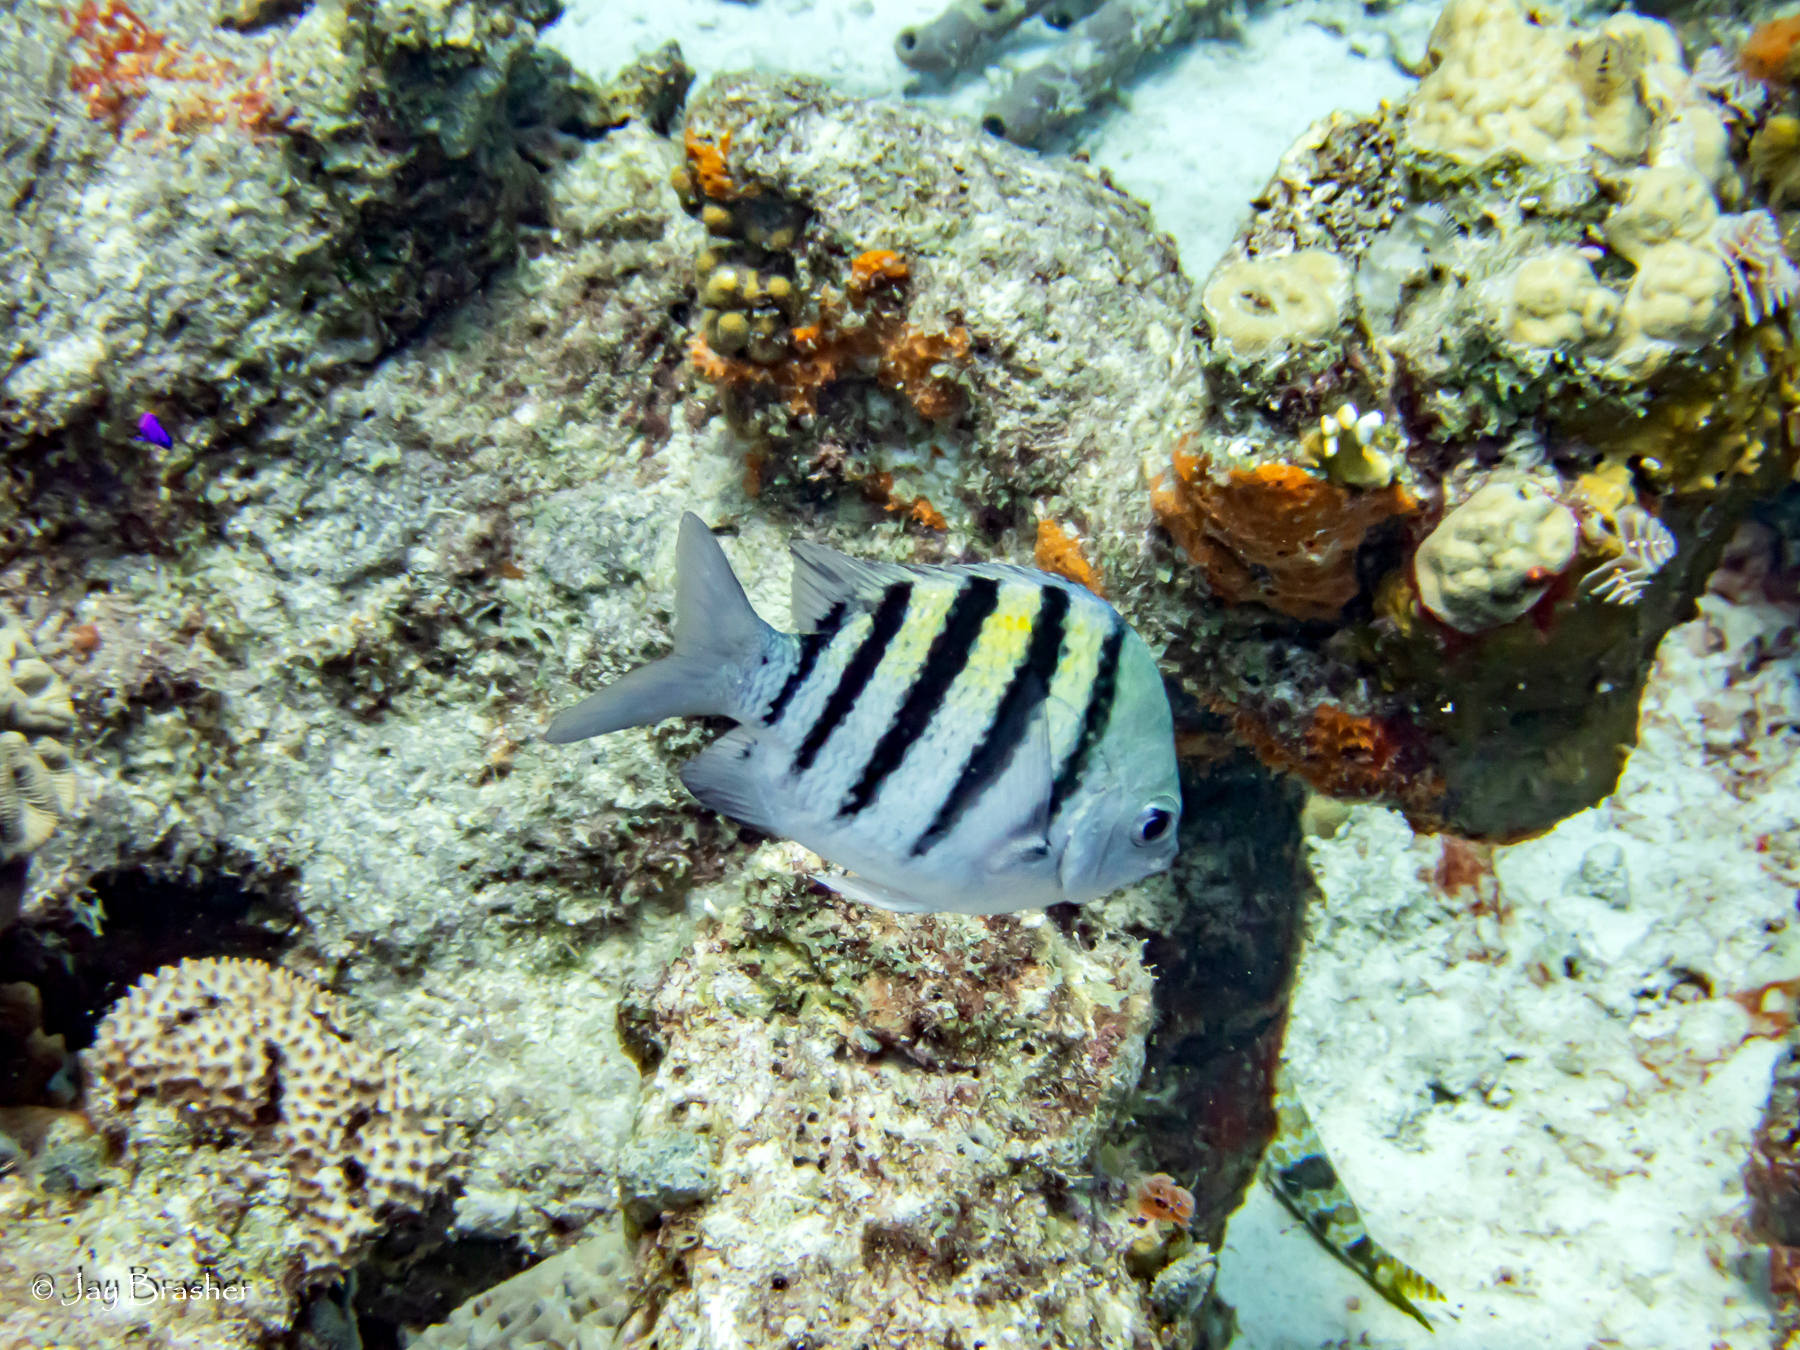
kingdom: Animalia
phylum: Porifera
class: Demospongiae
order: Dictyoceratida
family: Irciniidae
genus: Ircinia
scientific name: Ircinia felix
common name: Stinker sponge
